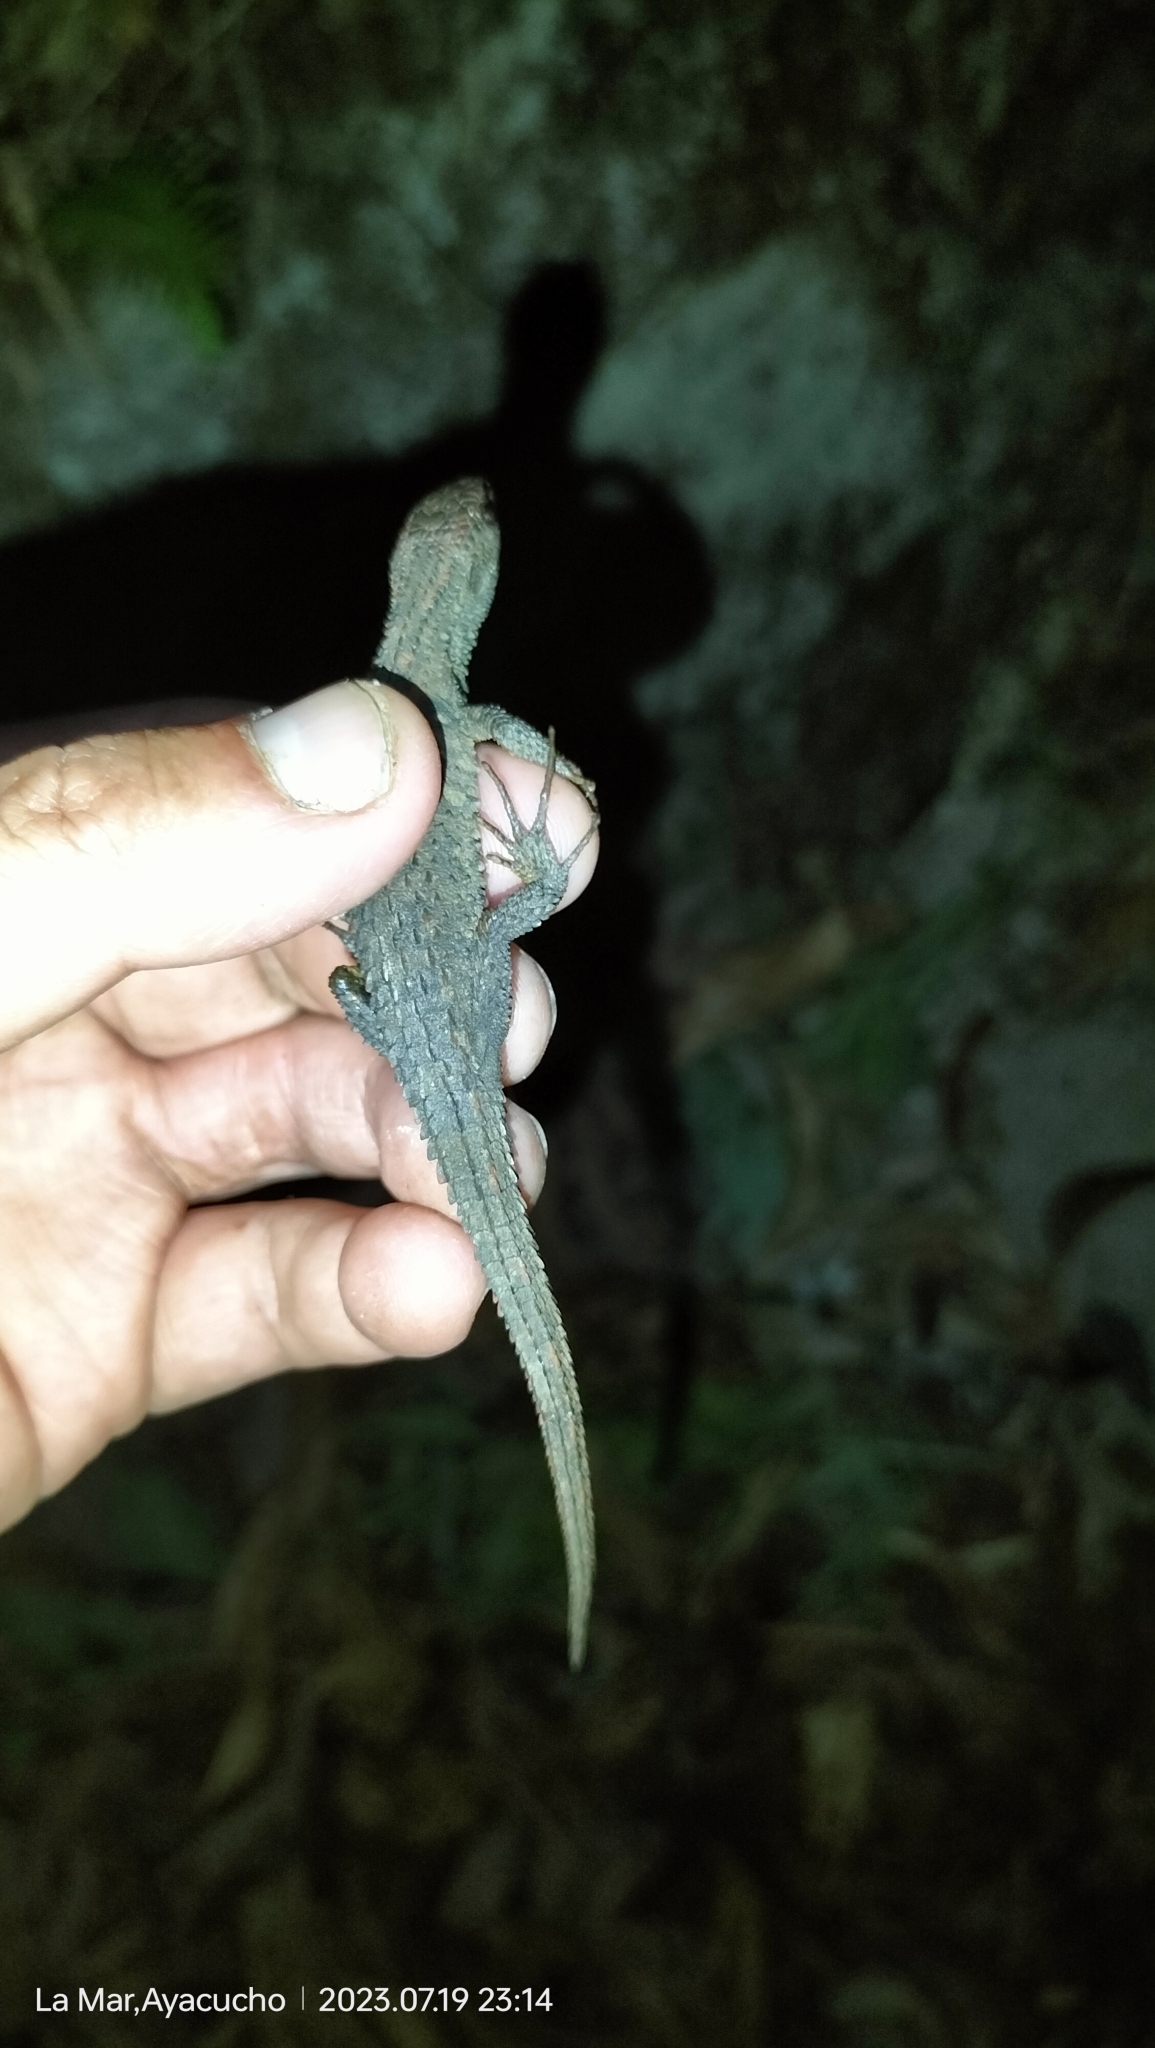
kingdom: Animalia
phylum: Chordata
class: Squamata
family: Gymnophthalmidae
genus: Potamites
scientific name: Potamites montanicola
